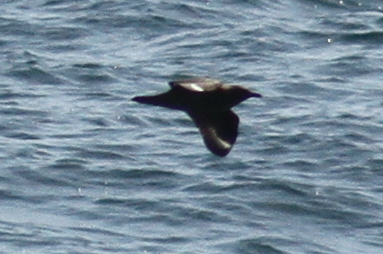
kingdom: Animalia
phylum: Chordata
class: Aves
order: Charadriiformes
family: Stercorariidae
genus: Stercorarius
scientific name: Stercorarius skua
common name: Great skua
